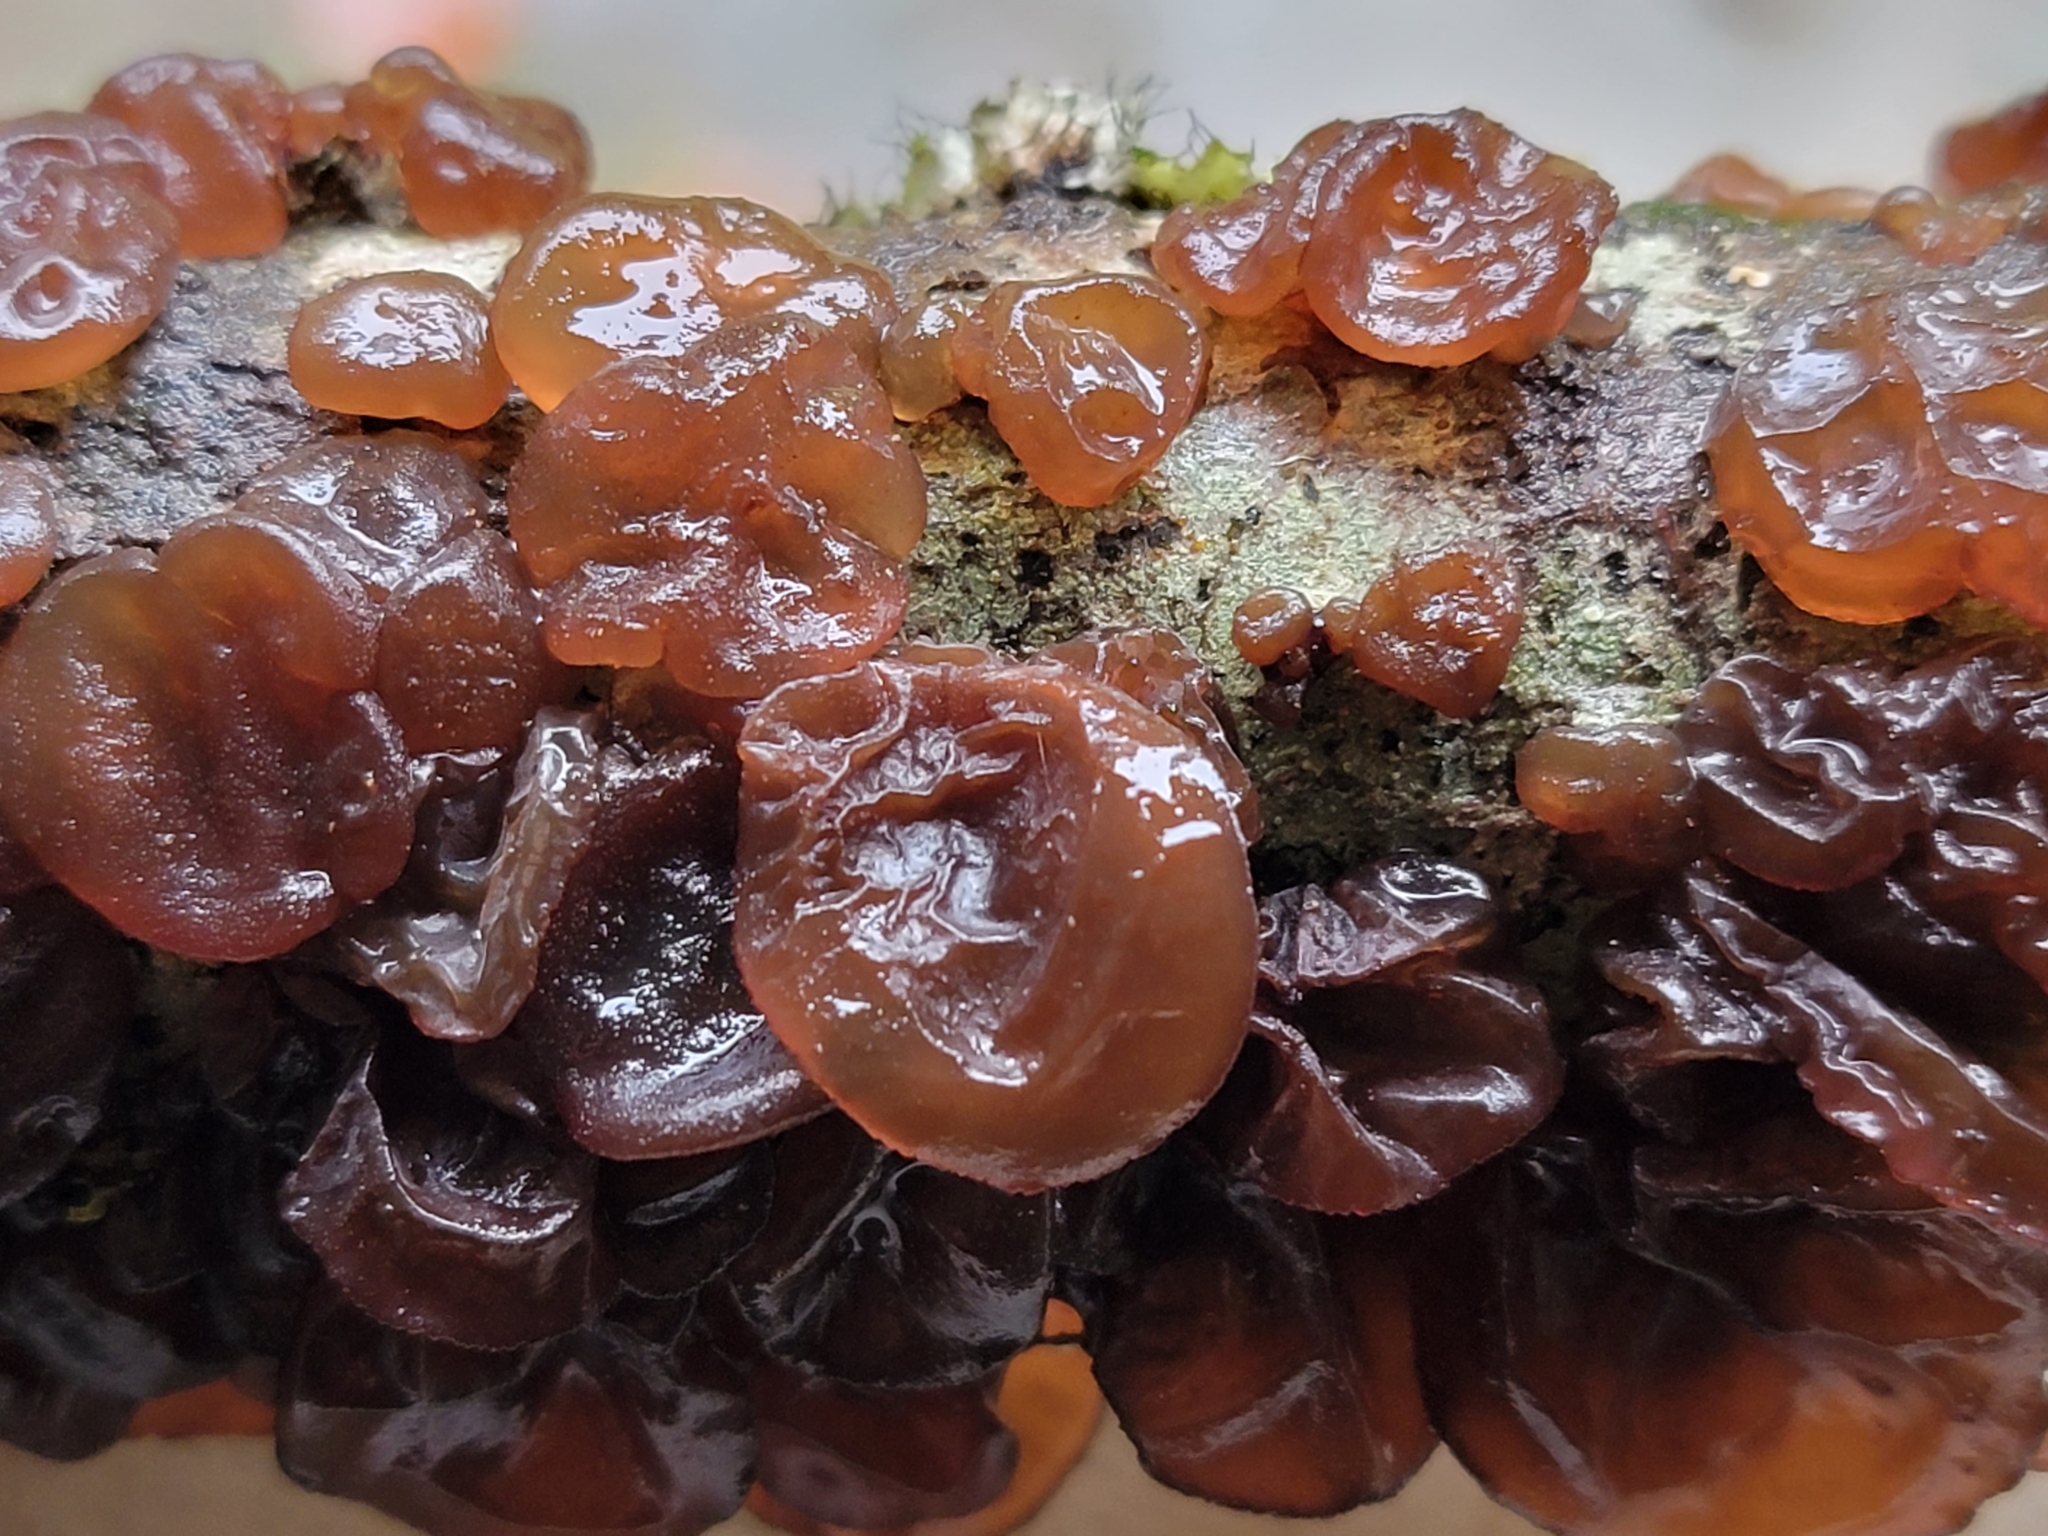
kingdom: Fungi
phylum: Basidiomycota
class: Agaricomycetes
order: Auriculariales
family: Auriculariaceae
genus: Exidia
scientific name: Exidia
